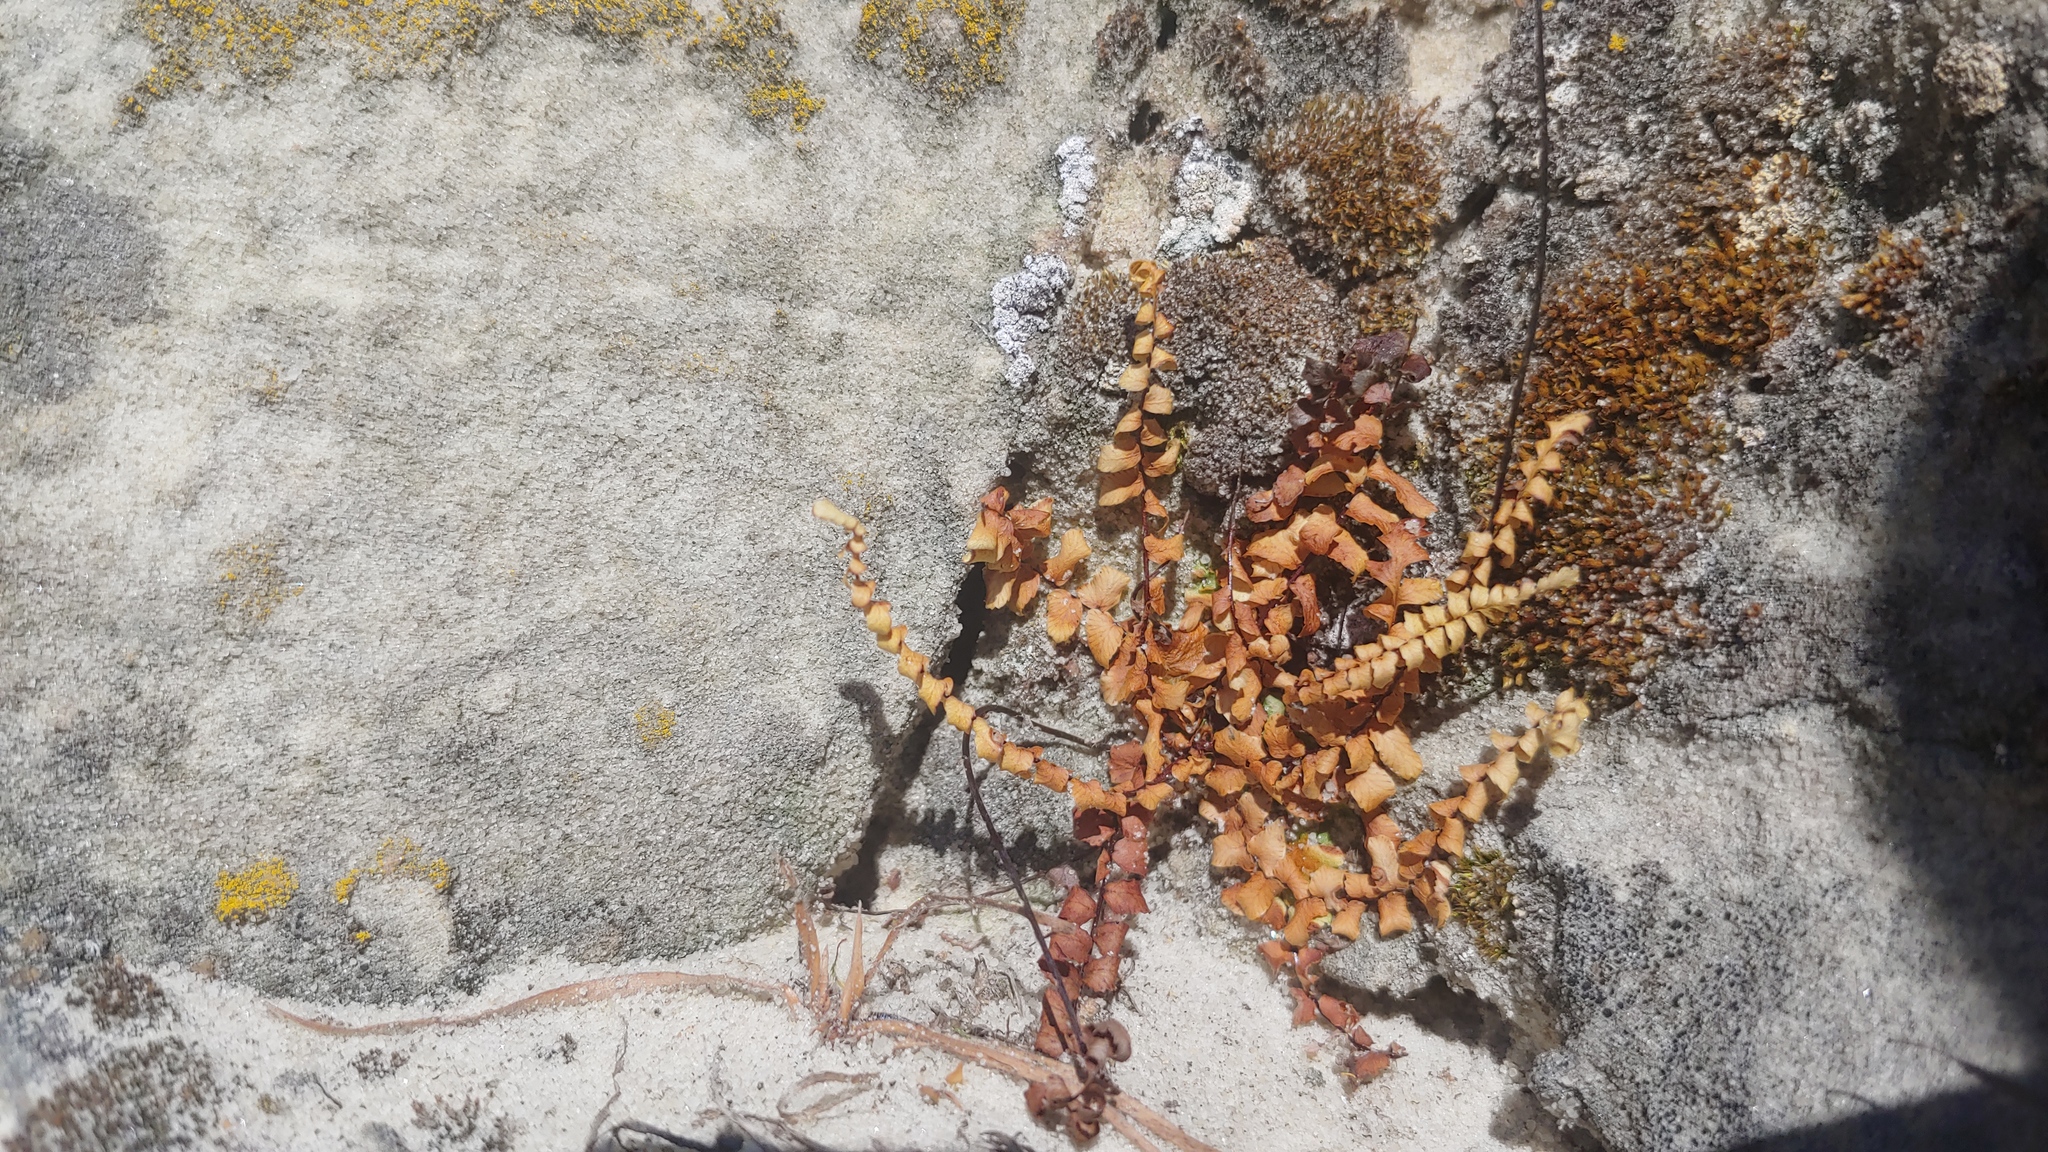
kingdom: Plantae
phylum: Tracheophyta
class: Polypodiopsida
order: Polypodiales
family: Aspleniaceae
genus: Asplenium
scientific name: Asplenium platyneuron
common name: Ebony spleenwort
